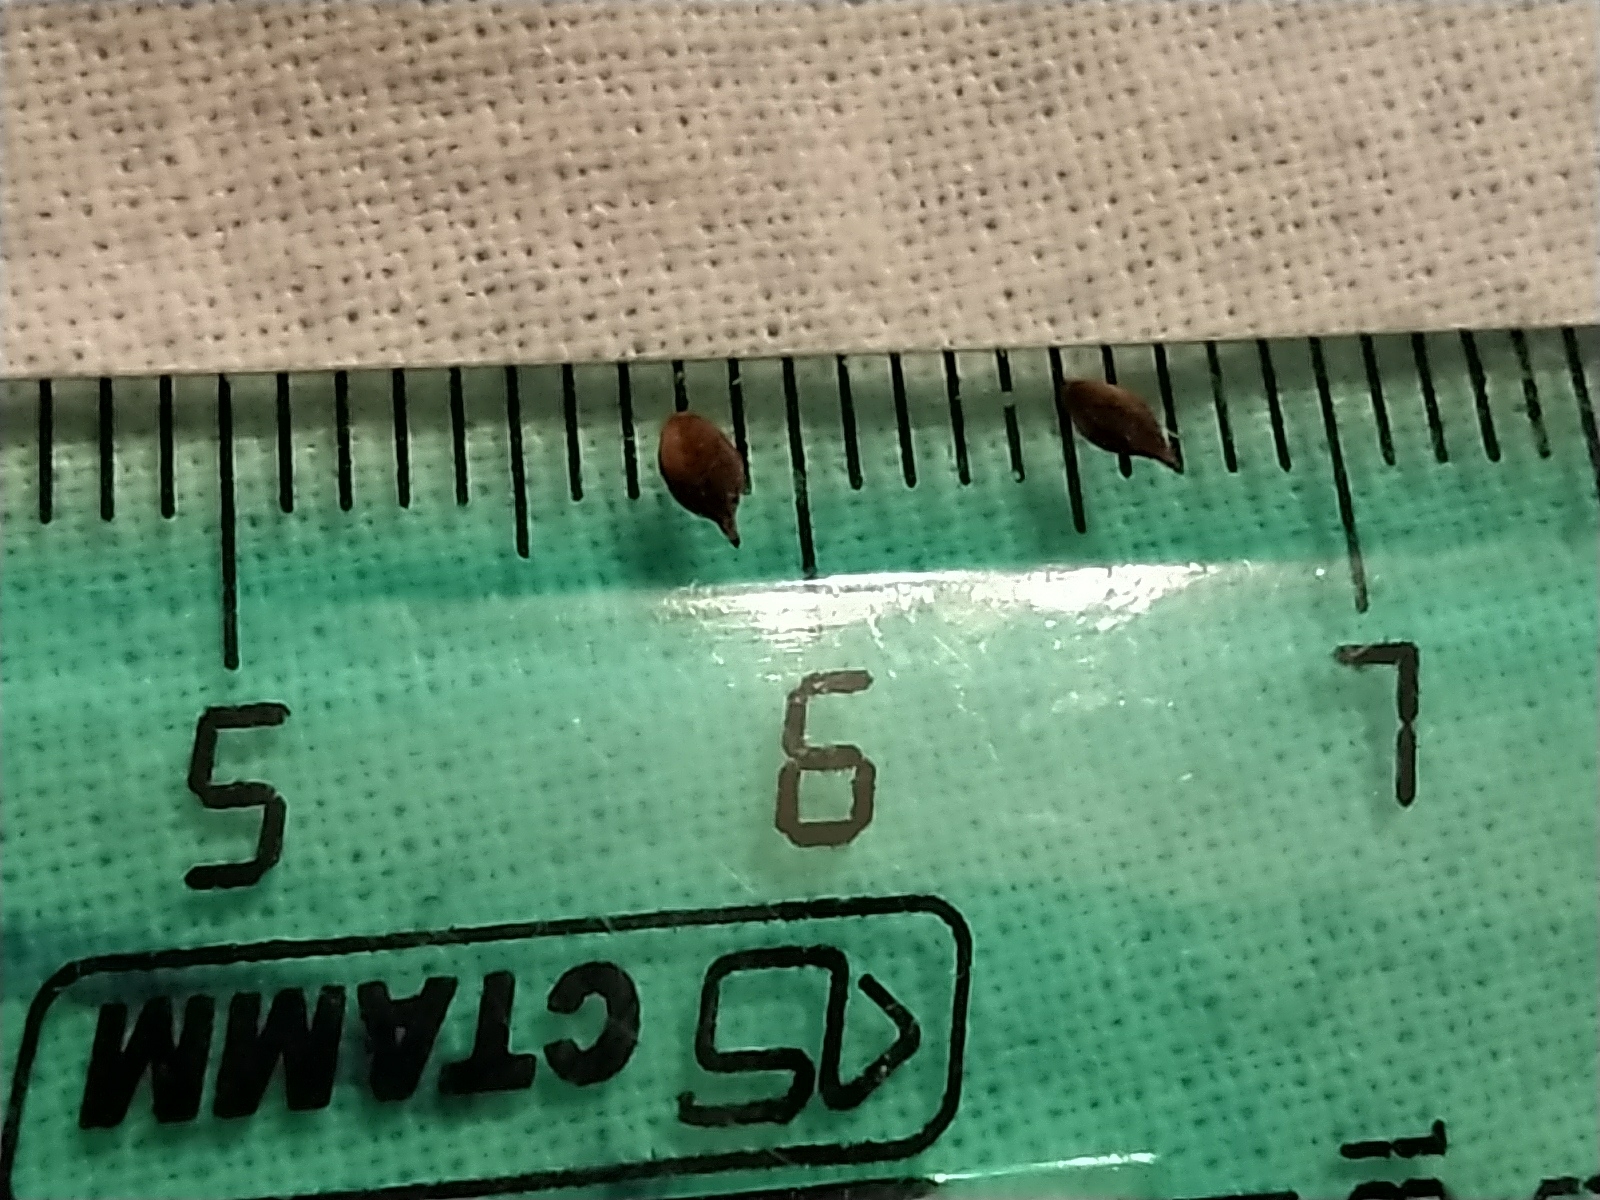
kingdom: Plantae
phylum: Tracheophyta
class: Liliopsida
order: Poales
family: Cyperaceae
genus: Carex
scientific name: Carex globularis
